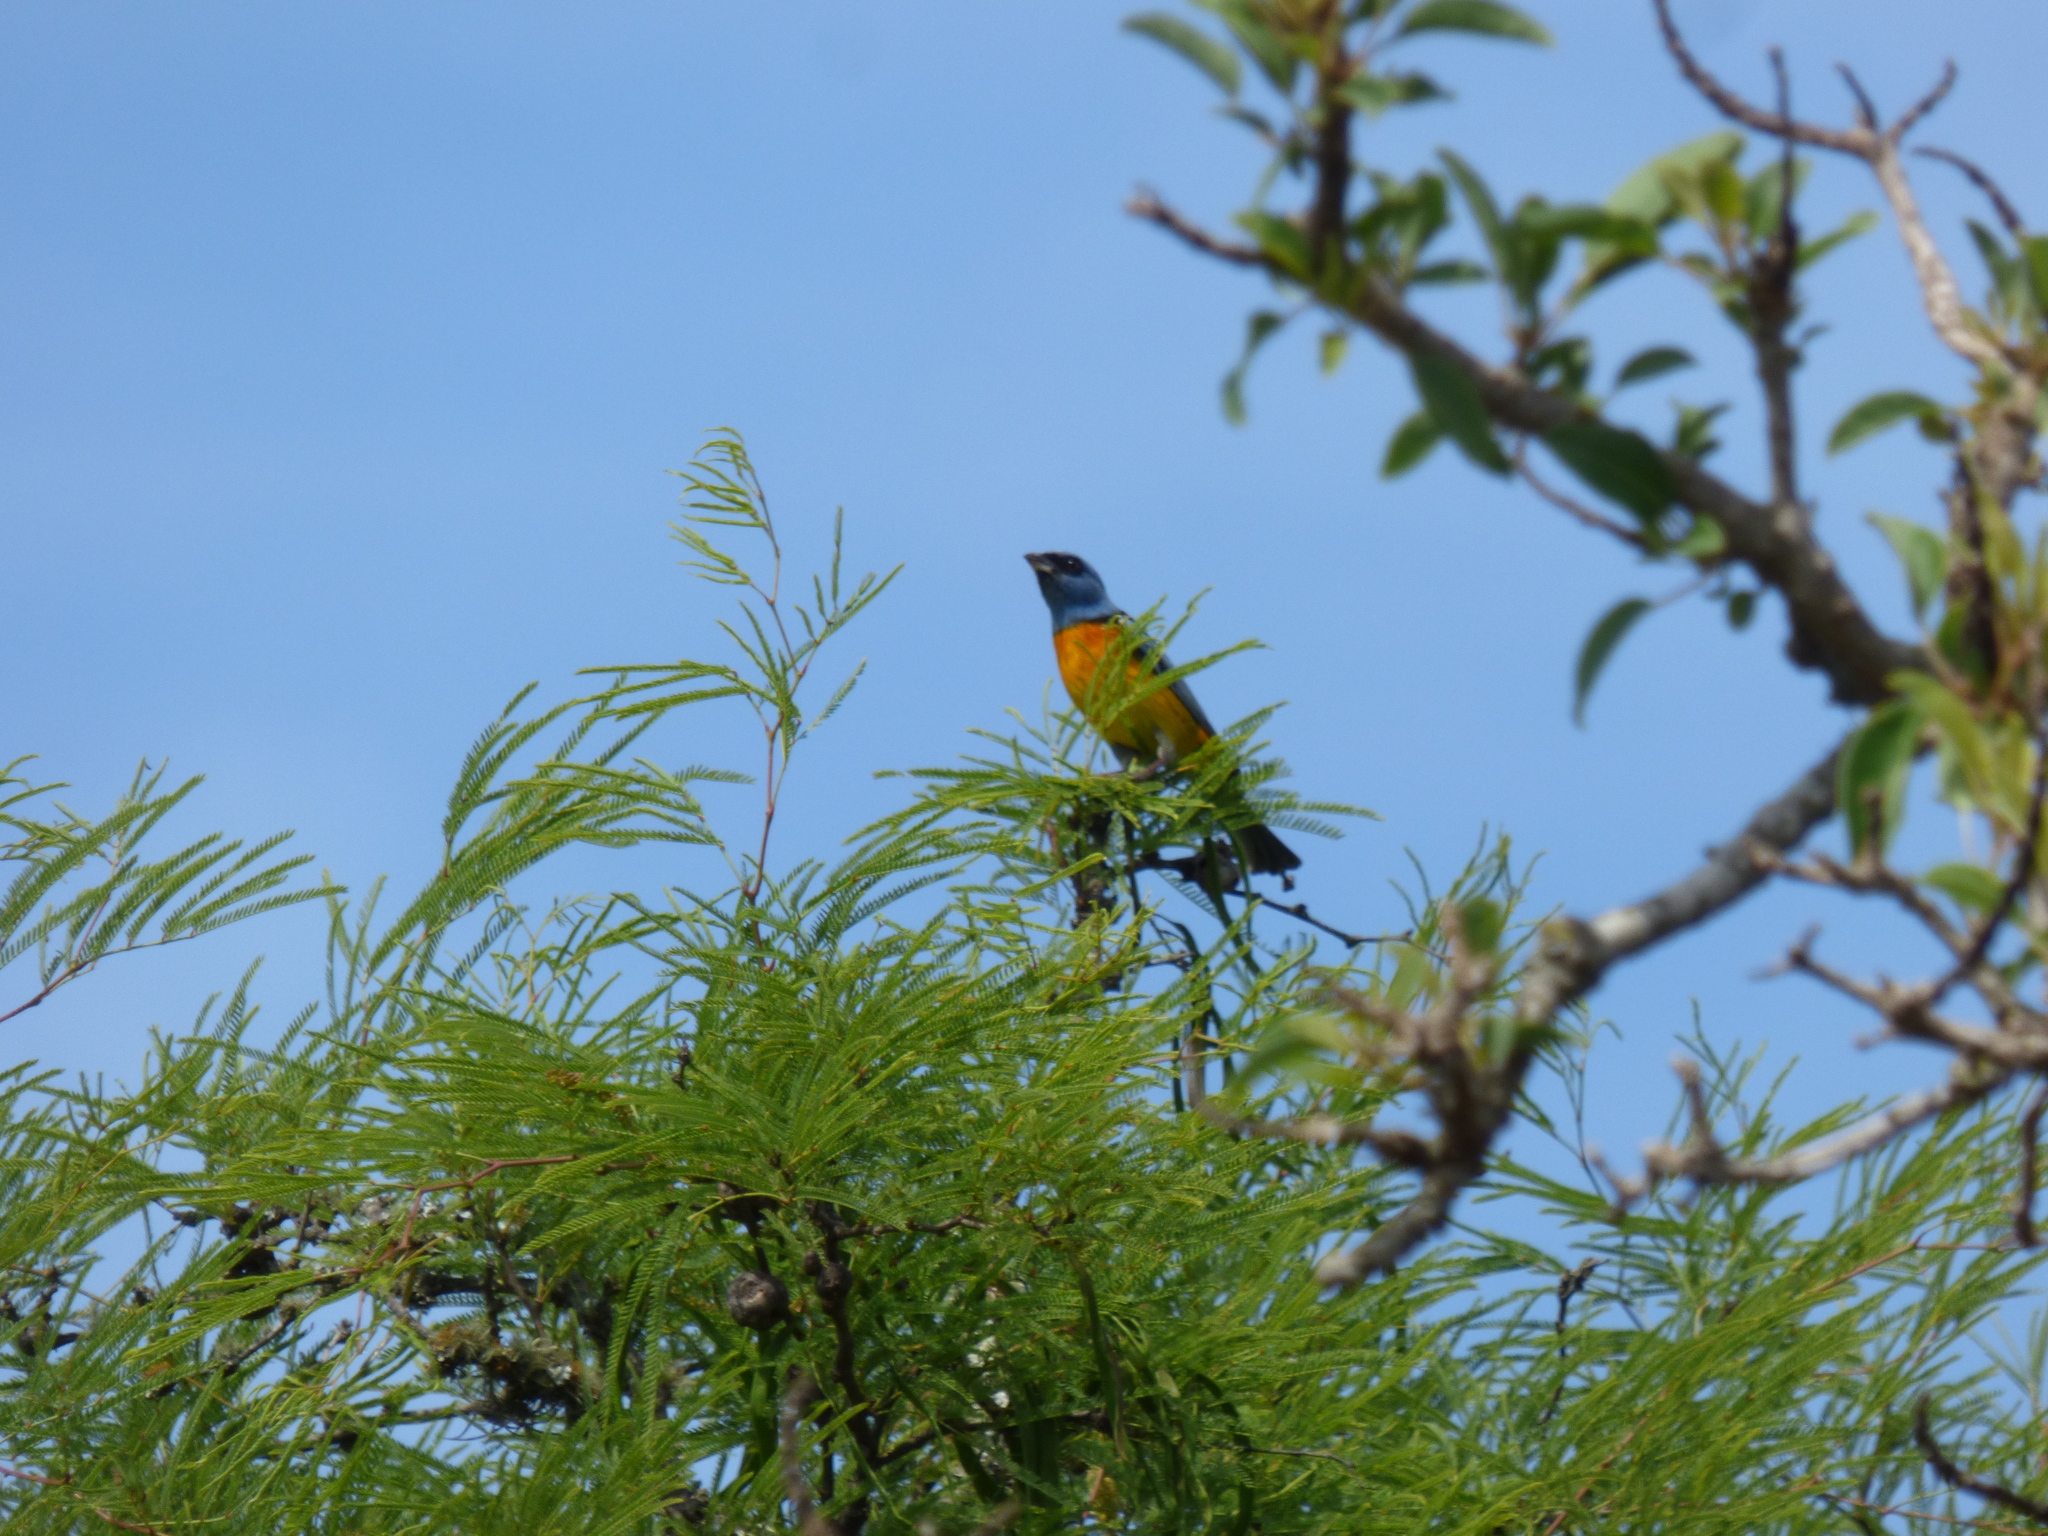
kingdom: Animalia
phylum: Chordata
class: Aves
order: Passeriformes
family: Thraupidae
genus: Rauenia
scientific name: Rauenia bonariensis
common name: Blue-and-yellow tanager
